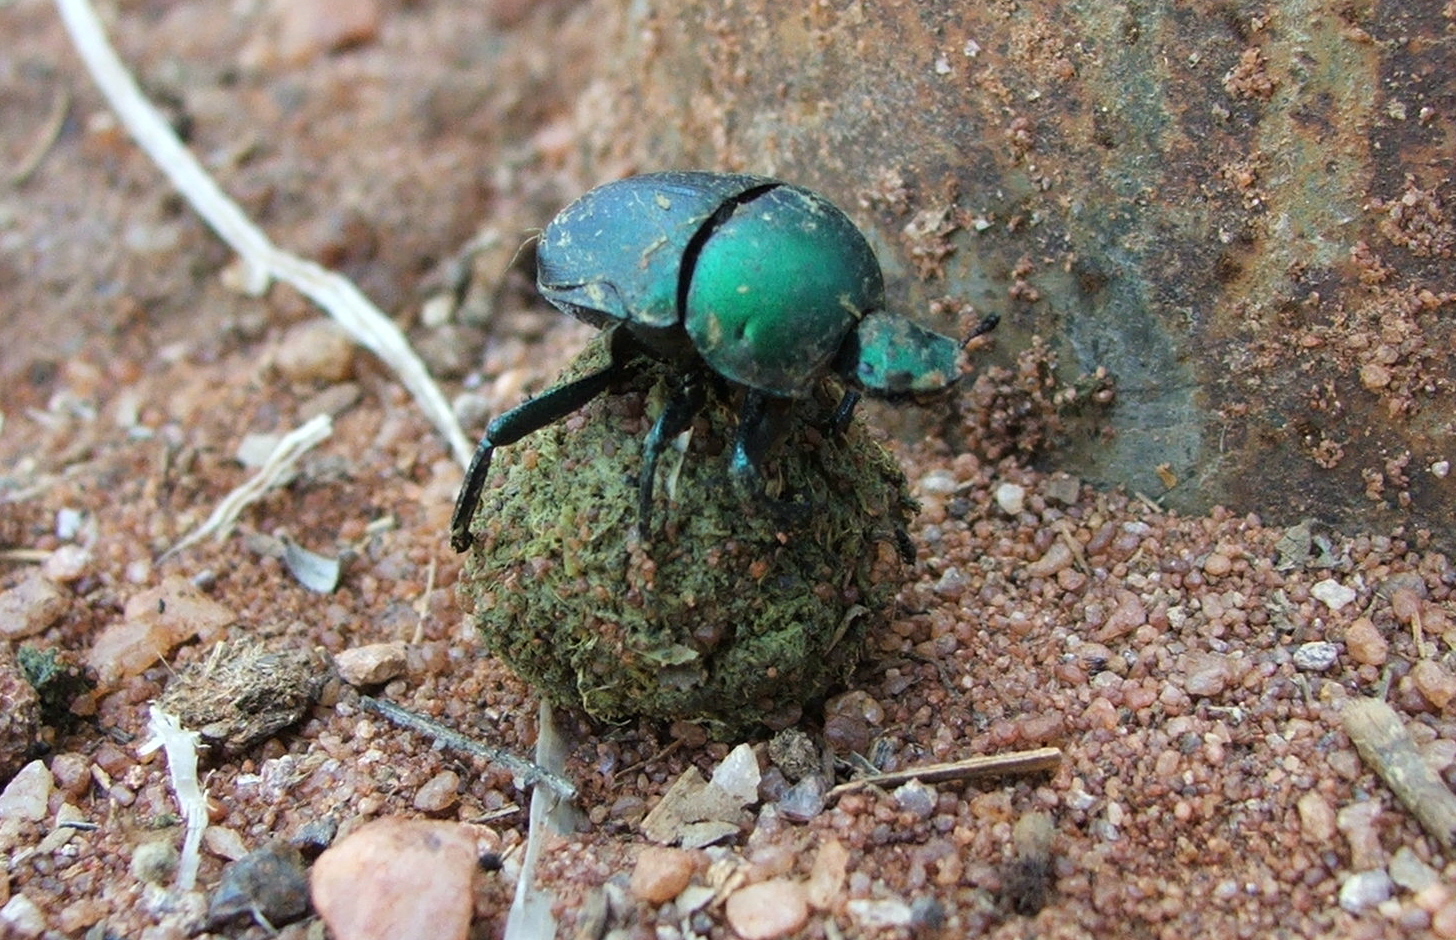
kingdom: Animalia
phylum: Arthropoda
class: Insecta
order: Coleoptera
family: Scarabaeidae
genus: Gymnopleurus
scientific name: Gymnopleurus humeralis
